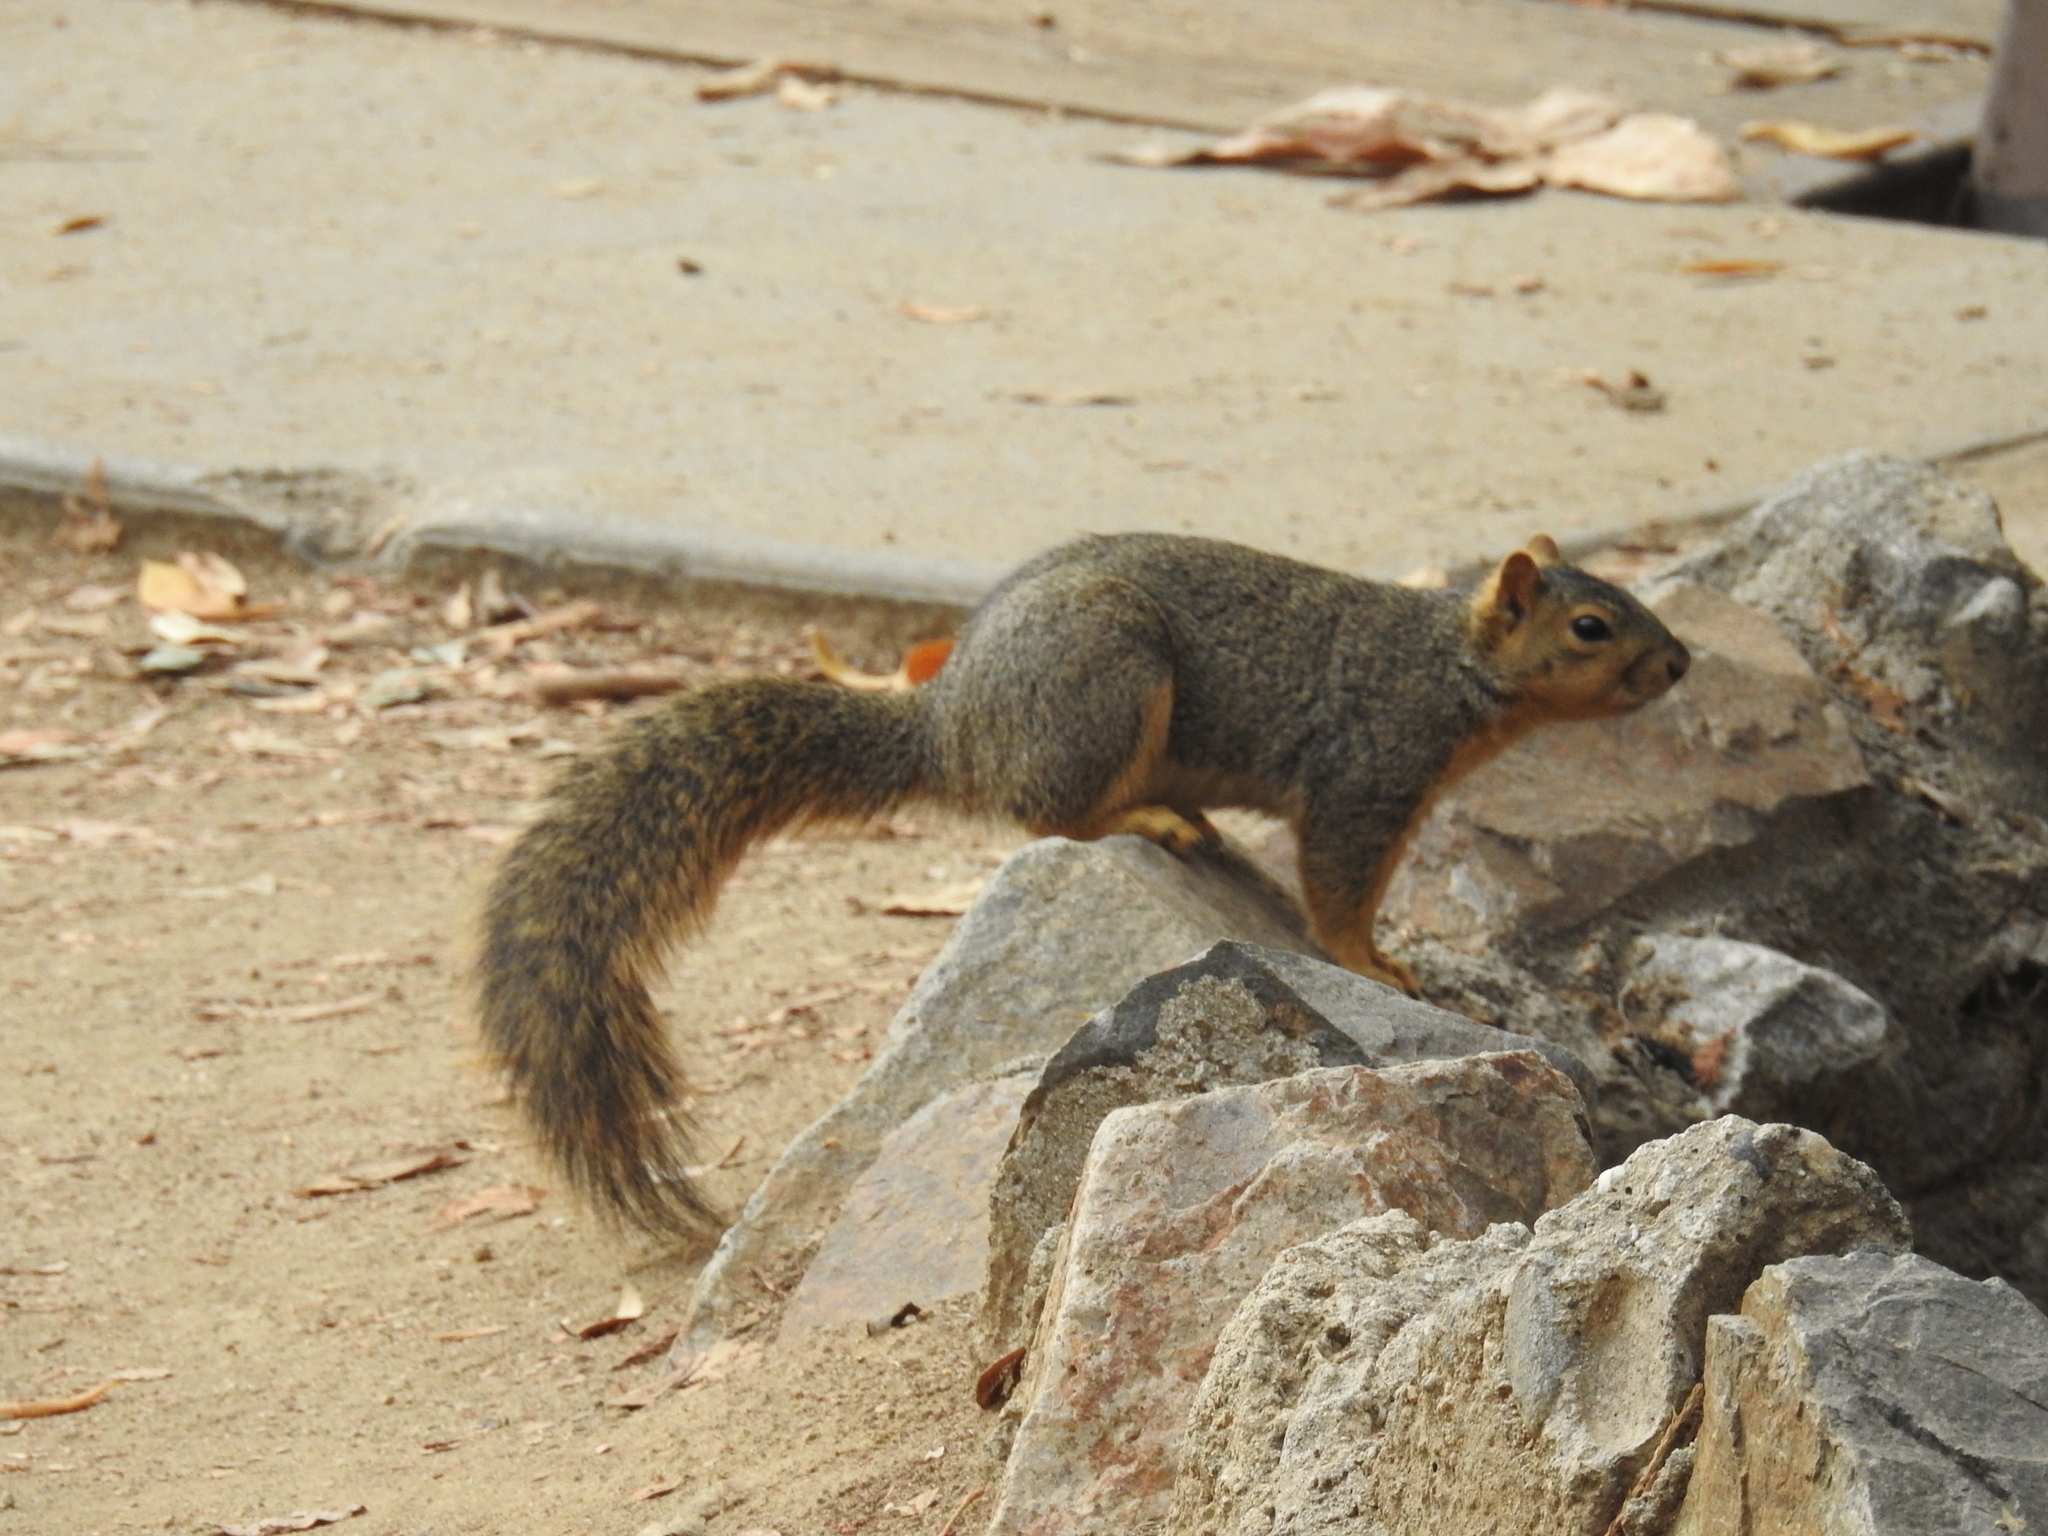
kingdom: Animalia
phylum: Chordata
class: Mammalia
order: Rodentia
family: Sciuridae
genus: Sciurus
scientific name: Sciurus niger
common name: Fox squirrel
